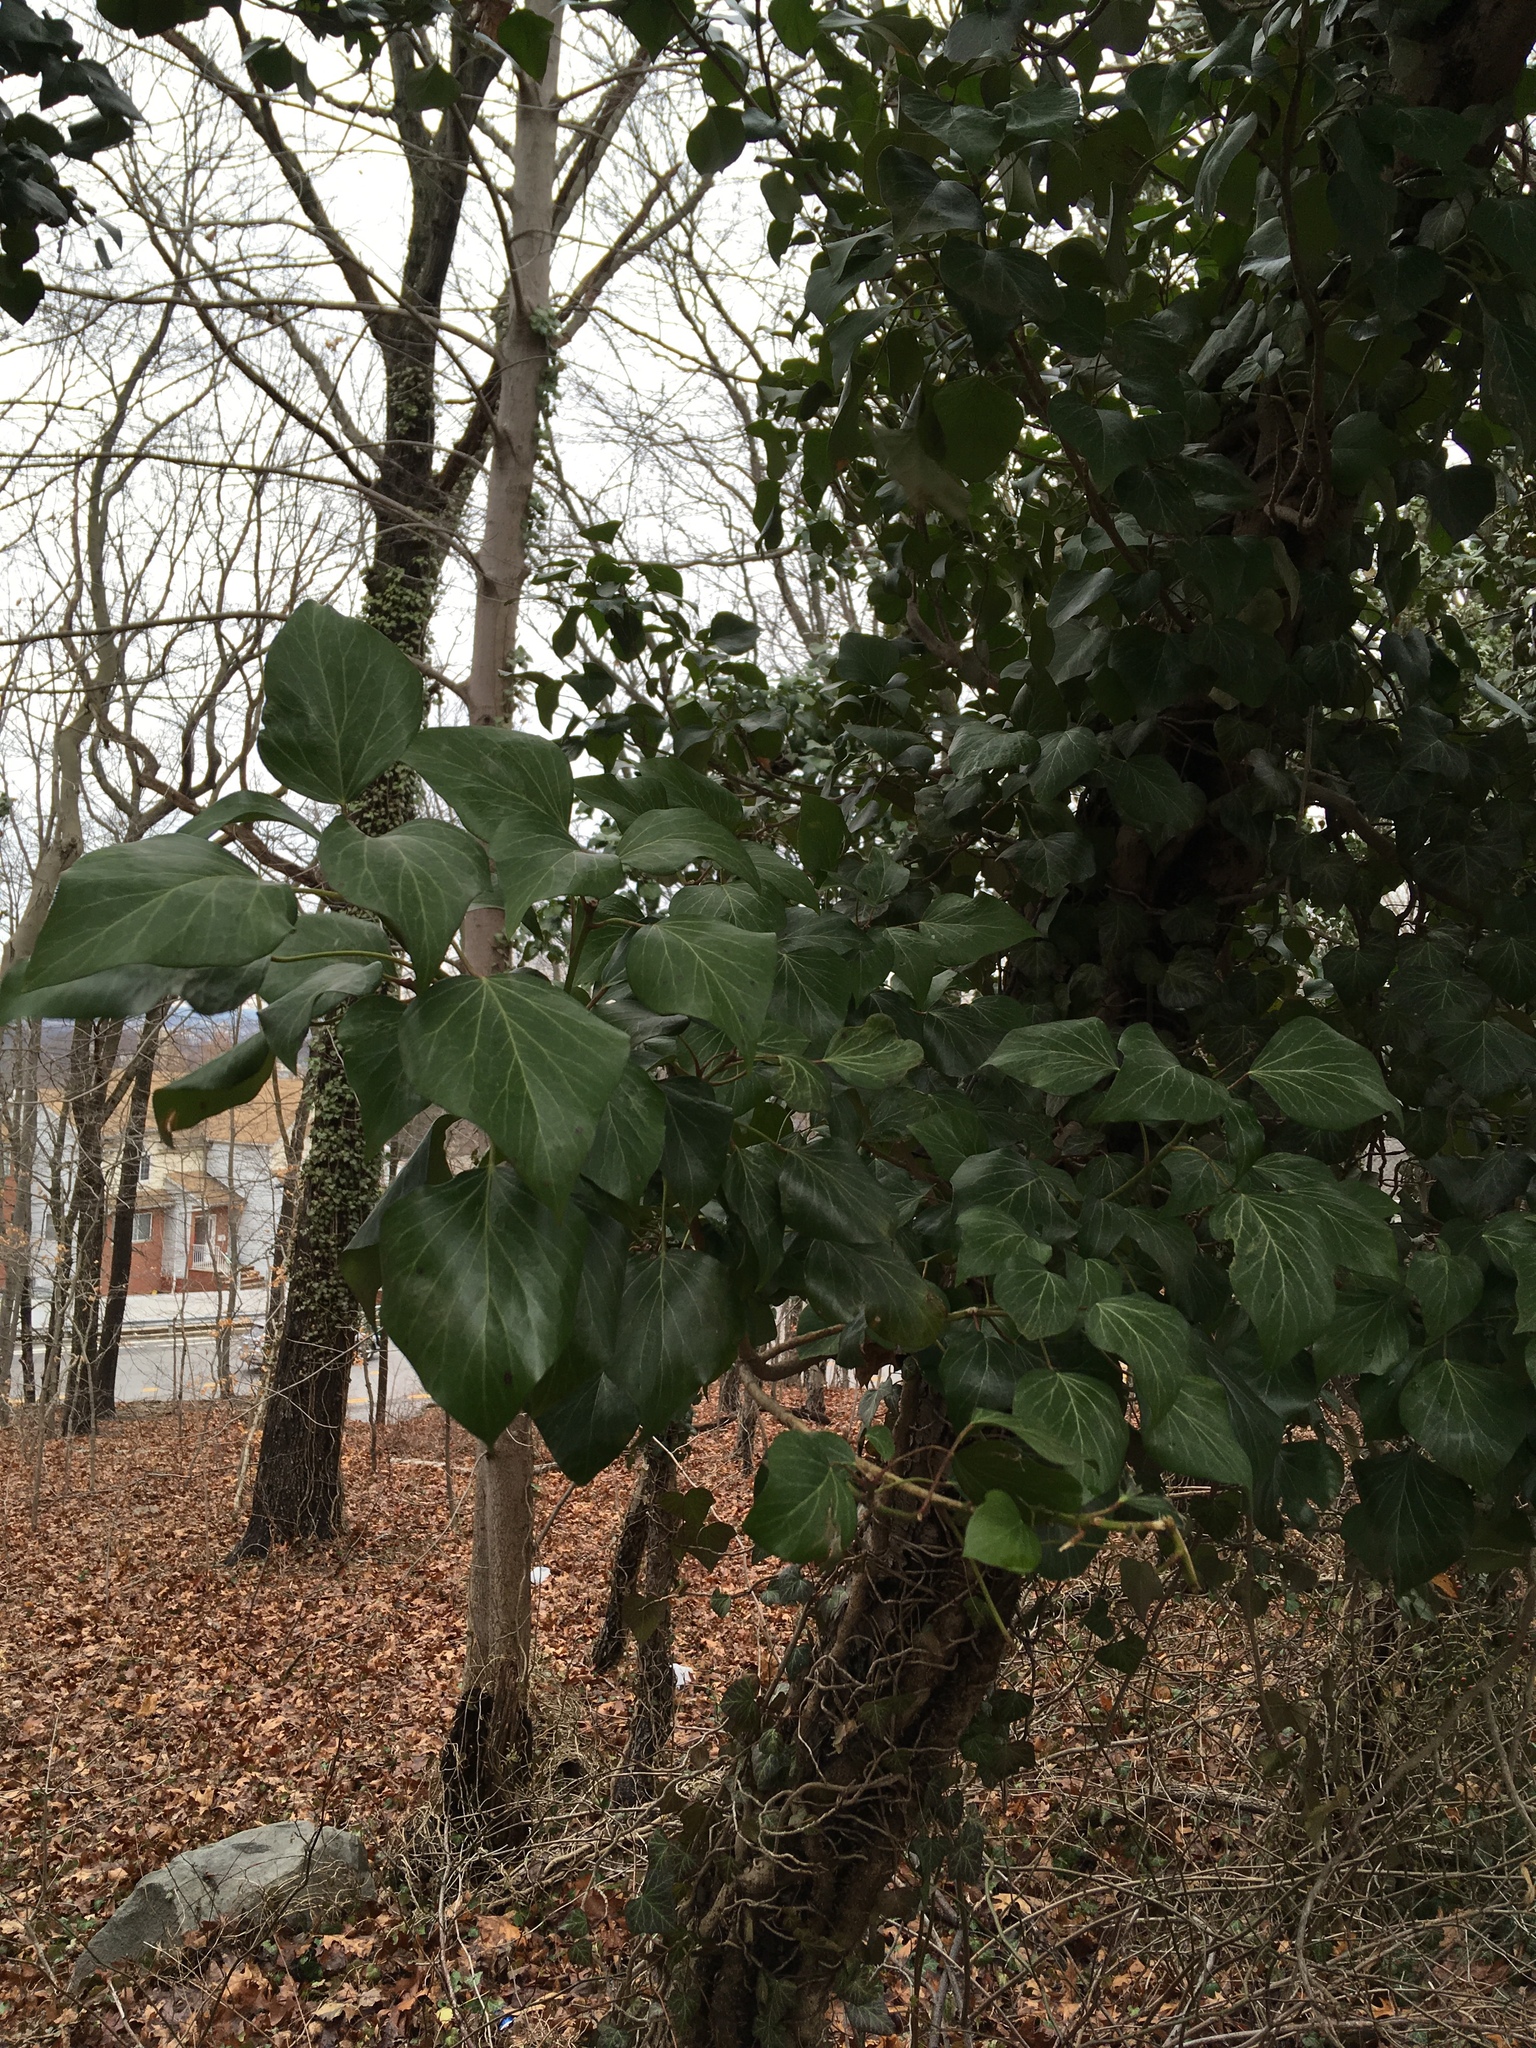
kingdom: Plantae
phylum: Tracheophyta
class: Magnoliopsida
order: Apiales
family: Araliaceae
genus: Hedera
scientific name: Hedera helix
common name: Ivy
